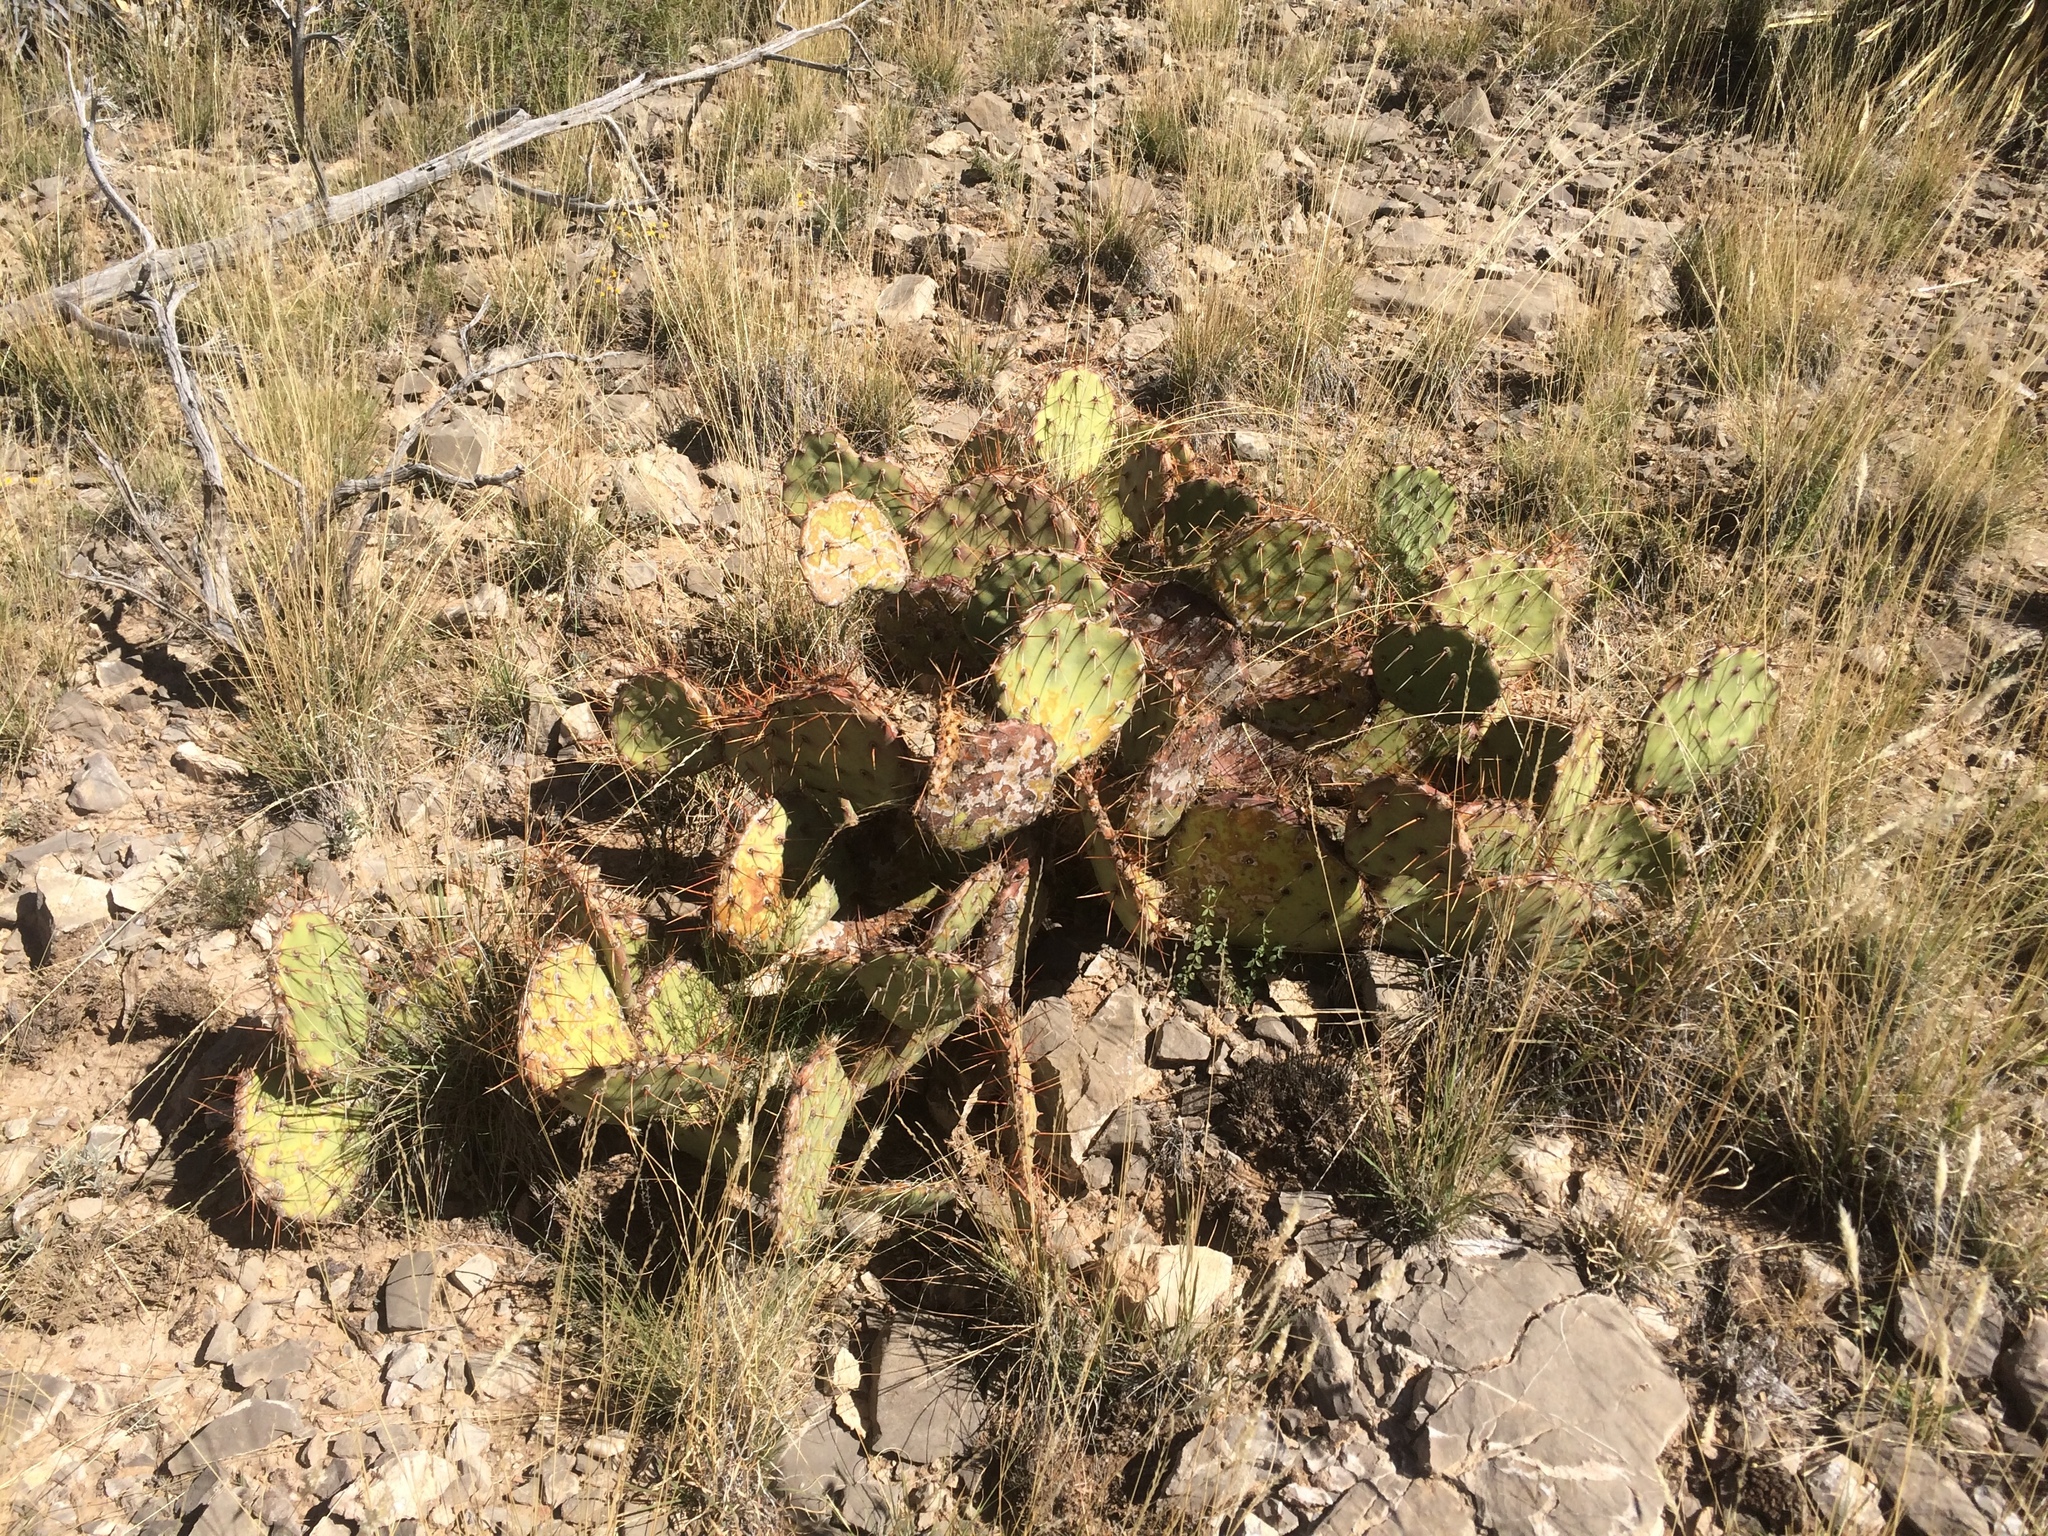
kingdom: Plantae
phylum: Tracheophyta
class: Magnoliopsida
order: Caryophyllales
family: Cactaceae
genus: Opuntia
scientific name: Opuntia phaeacantha
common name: New mexico prickly-pear
